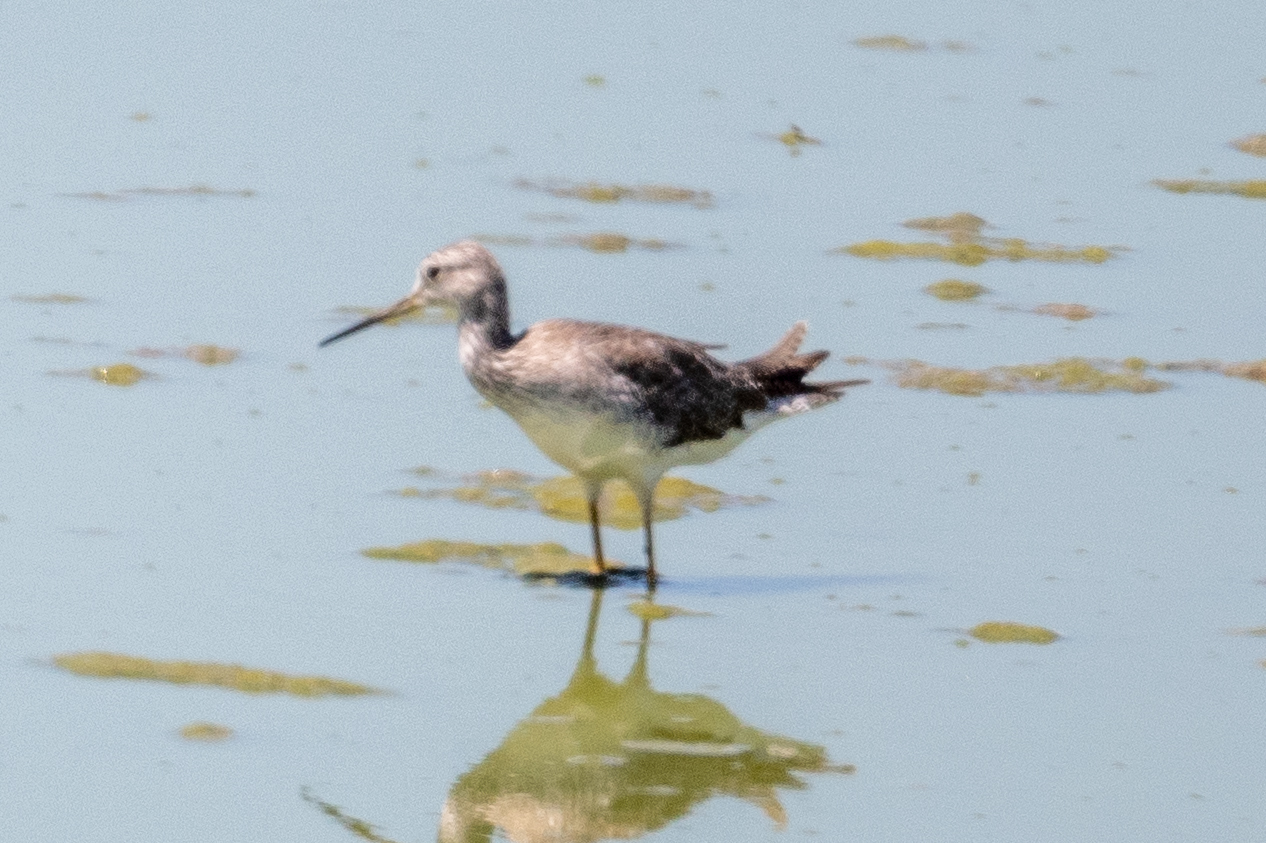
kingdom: Animalia
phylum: Chordata
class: Aves
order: Charadriiformes
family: Scolopacidae
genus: Tringa
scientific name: Tringa melanoleuca
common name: Greater yellowlegs
